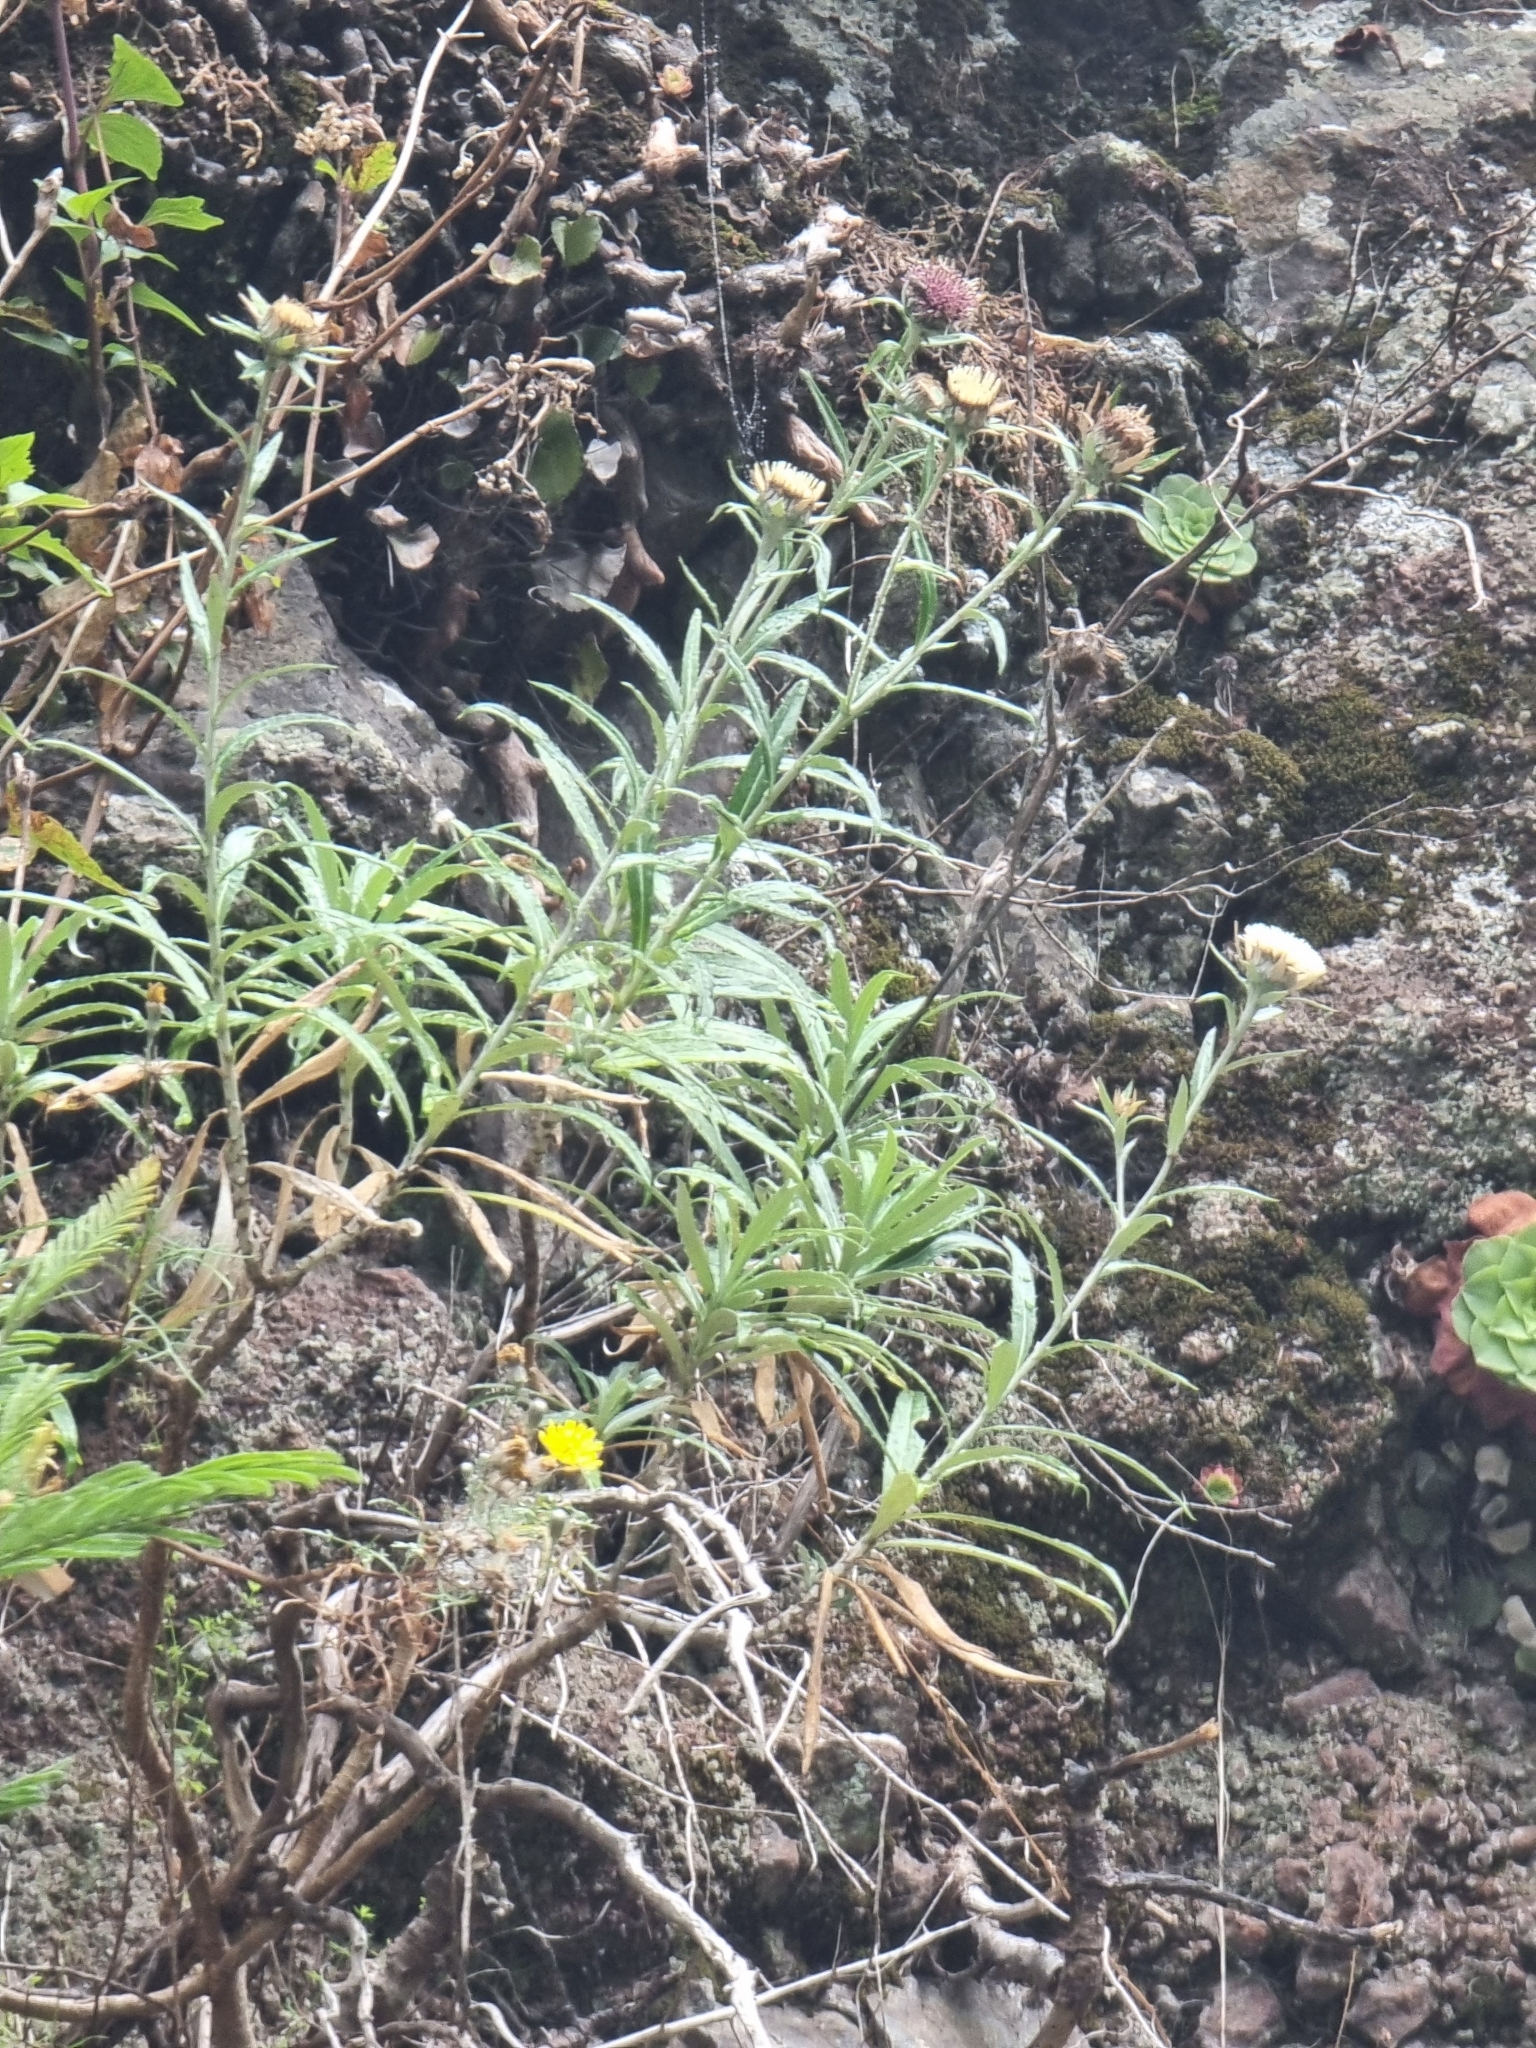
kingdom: Plantae
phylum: Tracheophyta
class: Magnoliopsida
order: Asterales
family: Asteraceae
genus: Carlina
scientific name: Carlina salicifolia
